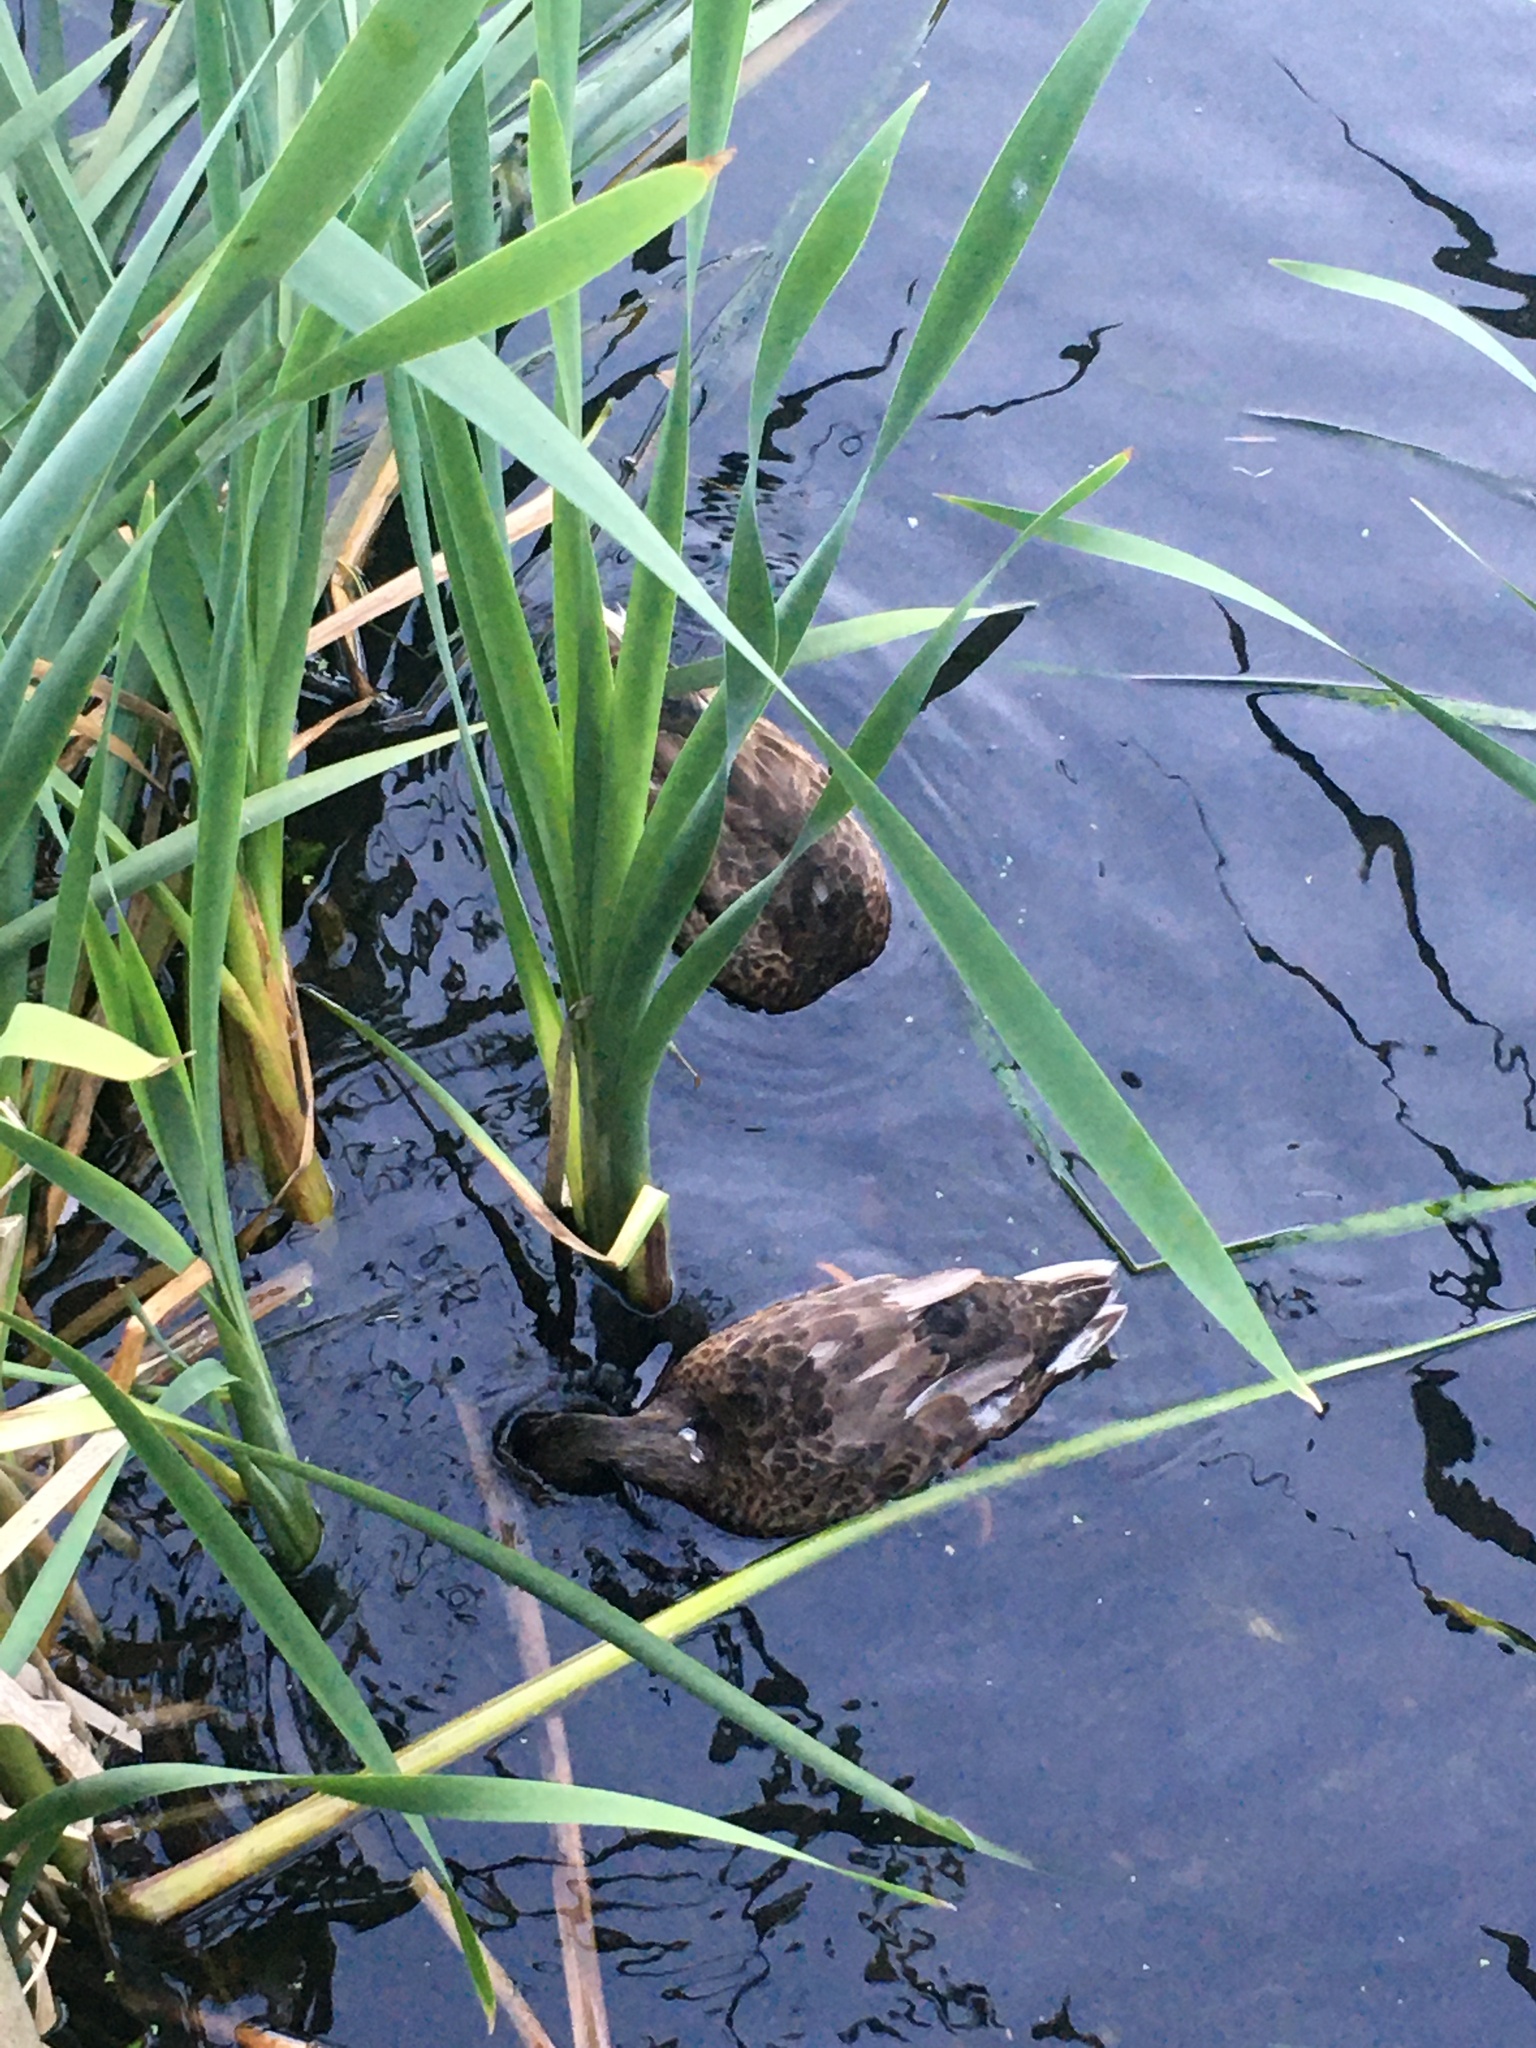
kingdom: Animalia
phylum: Chordata
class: Aves
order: Anseriformes
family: Anatidae
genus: Anas
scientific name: Anas platyrhynchos
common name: Mallard
